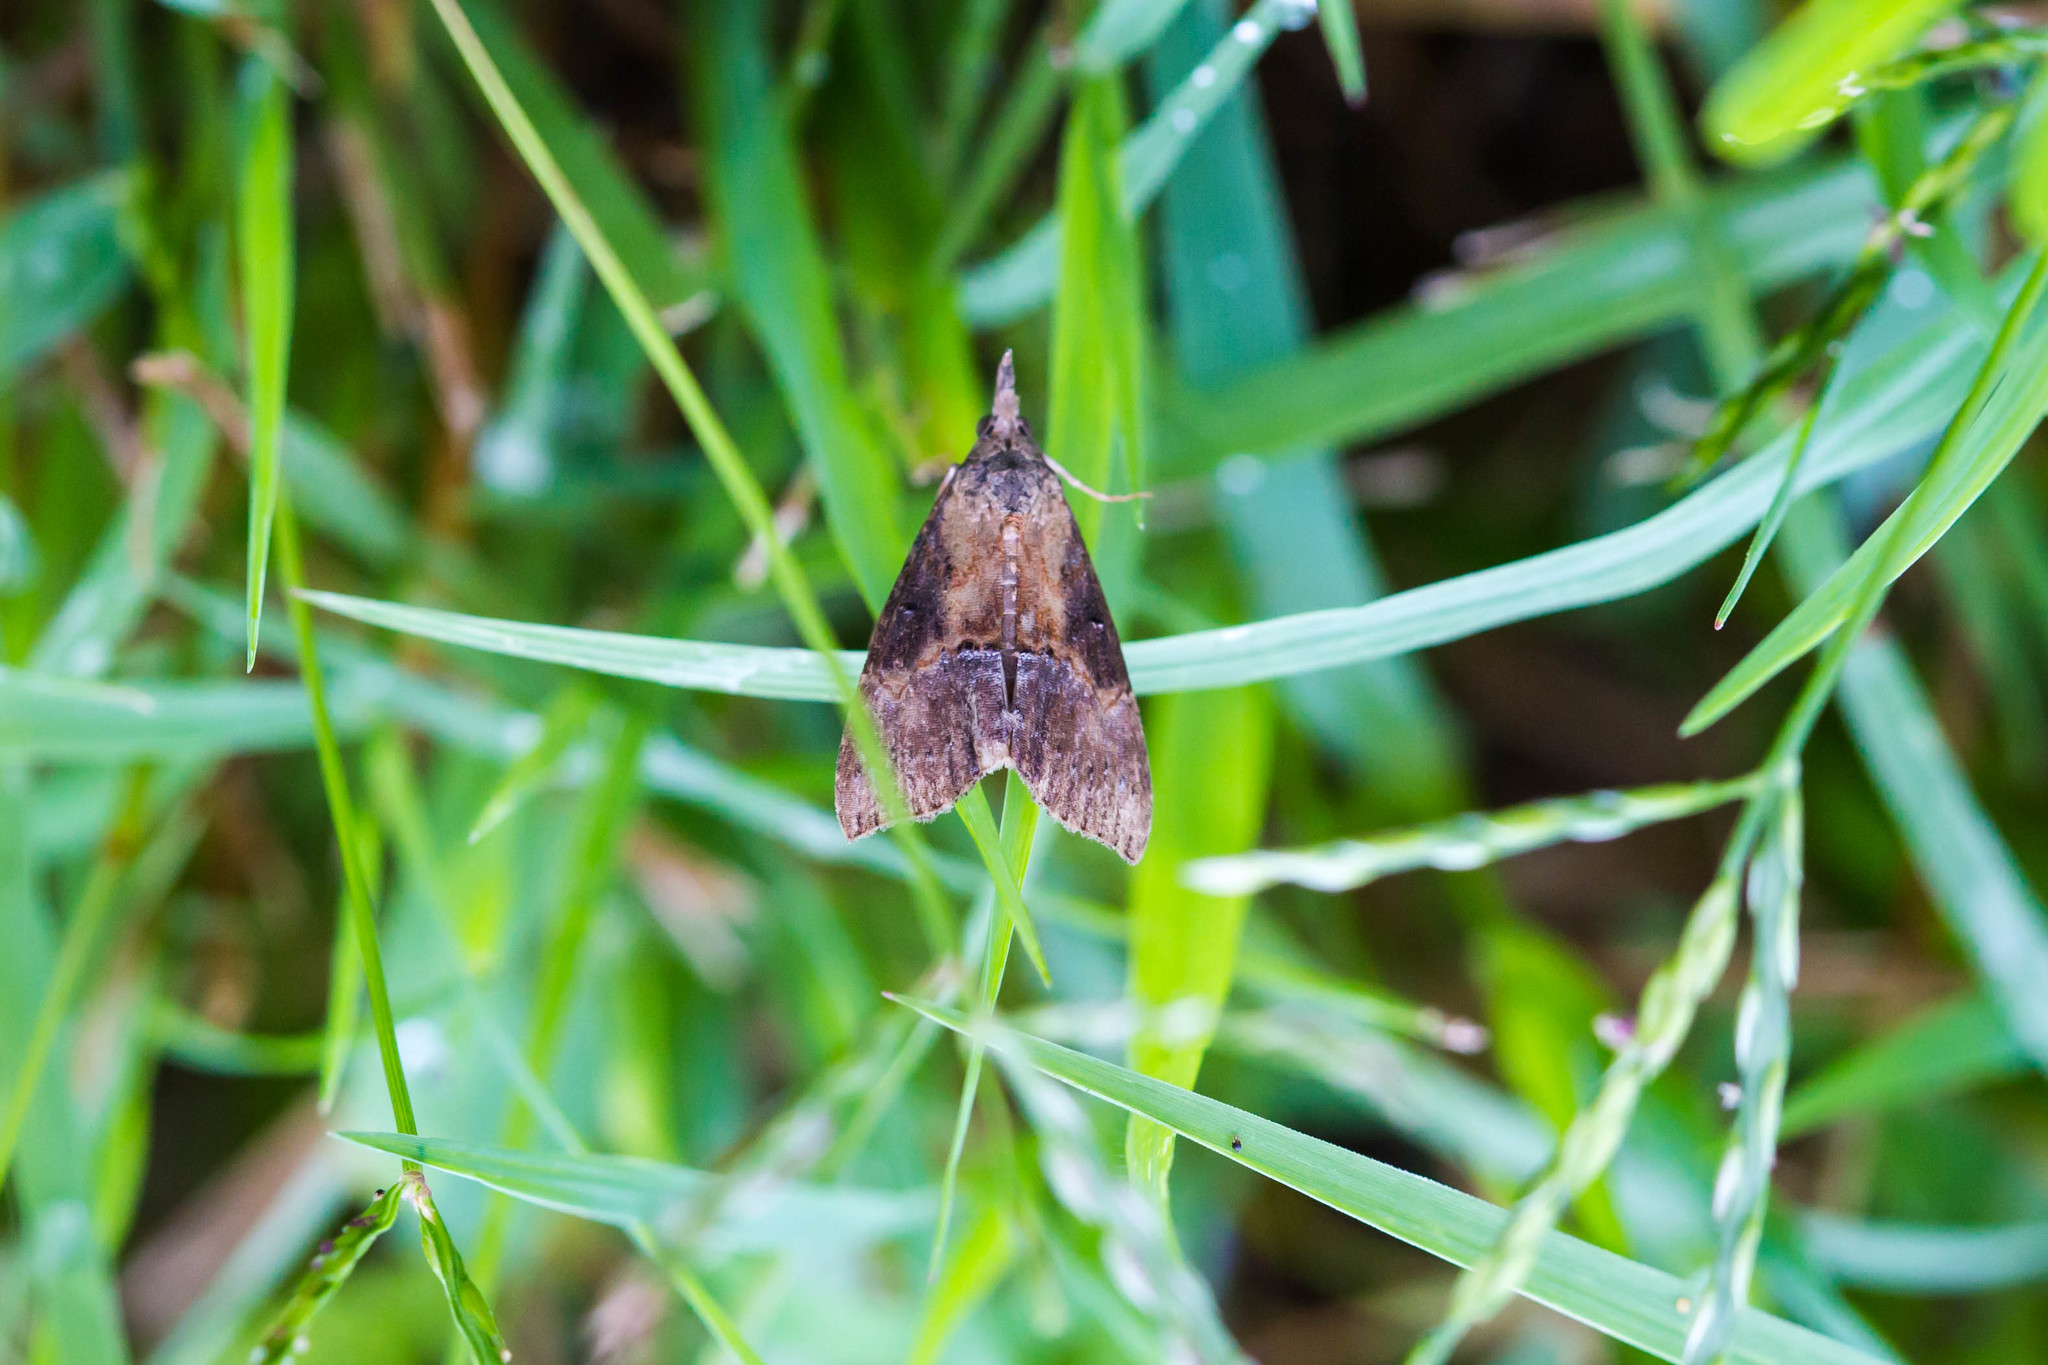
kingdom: Animalia
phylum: Arthropoda
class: Insecta
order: Lepidoptera
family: Erebidae
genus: Hypena
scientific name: Hypena scabra
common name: Green cloverworm
